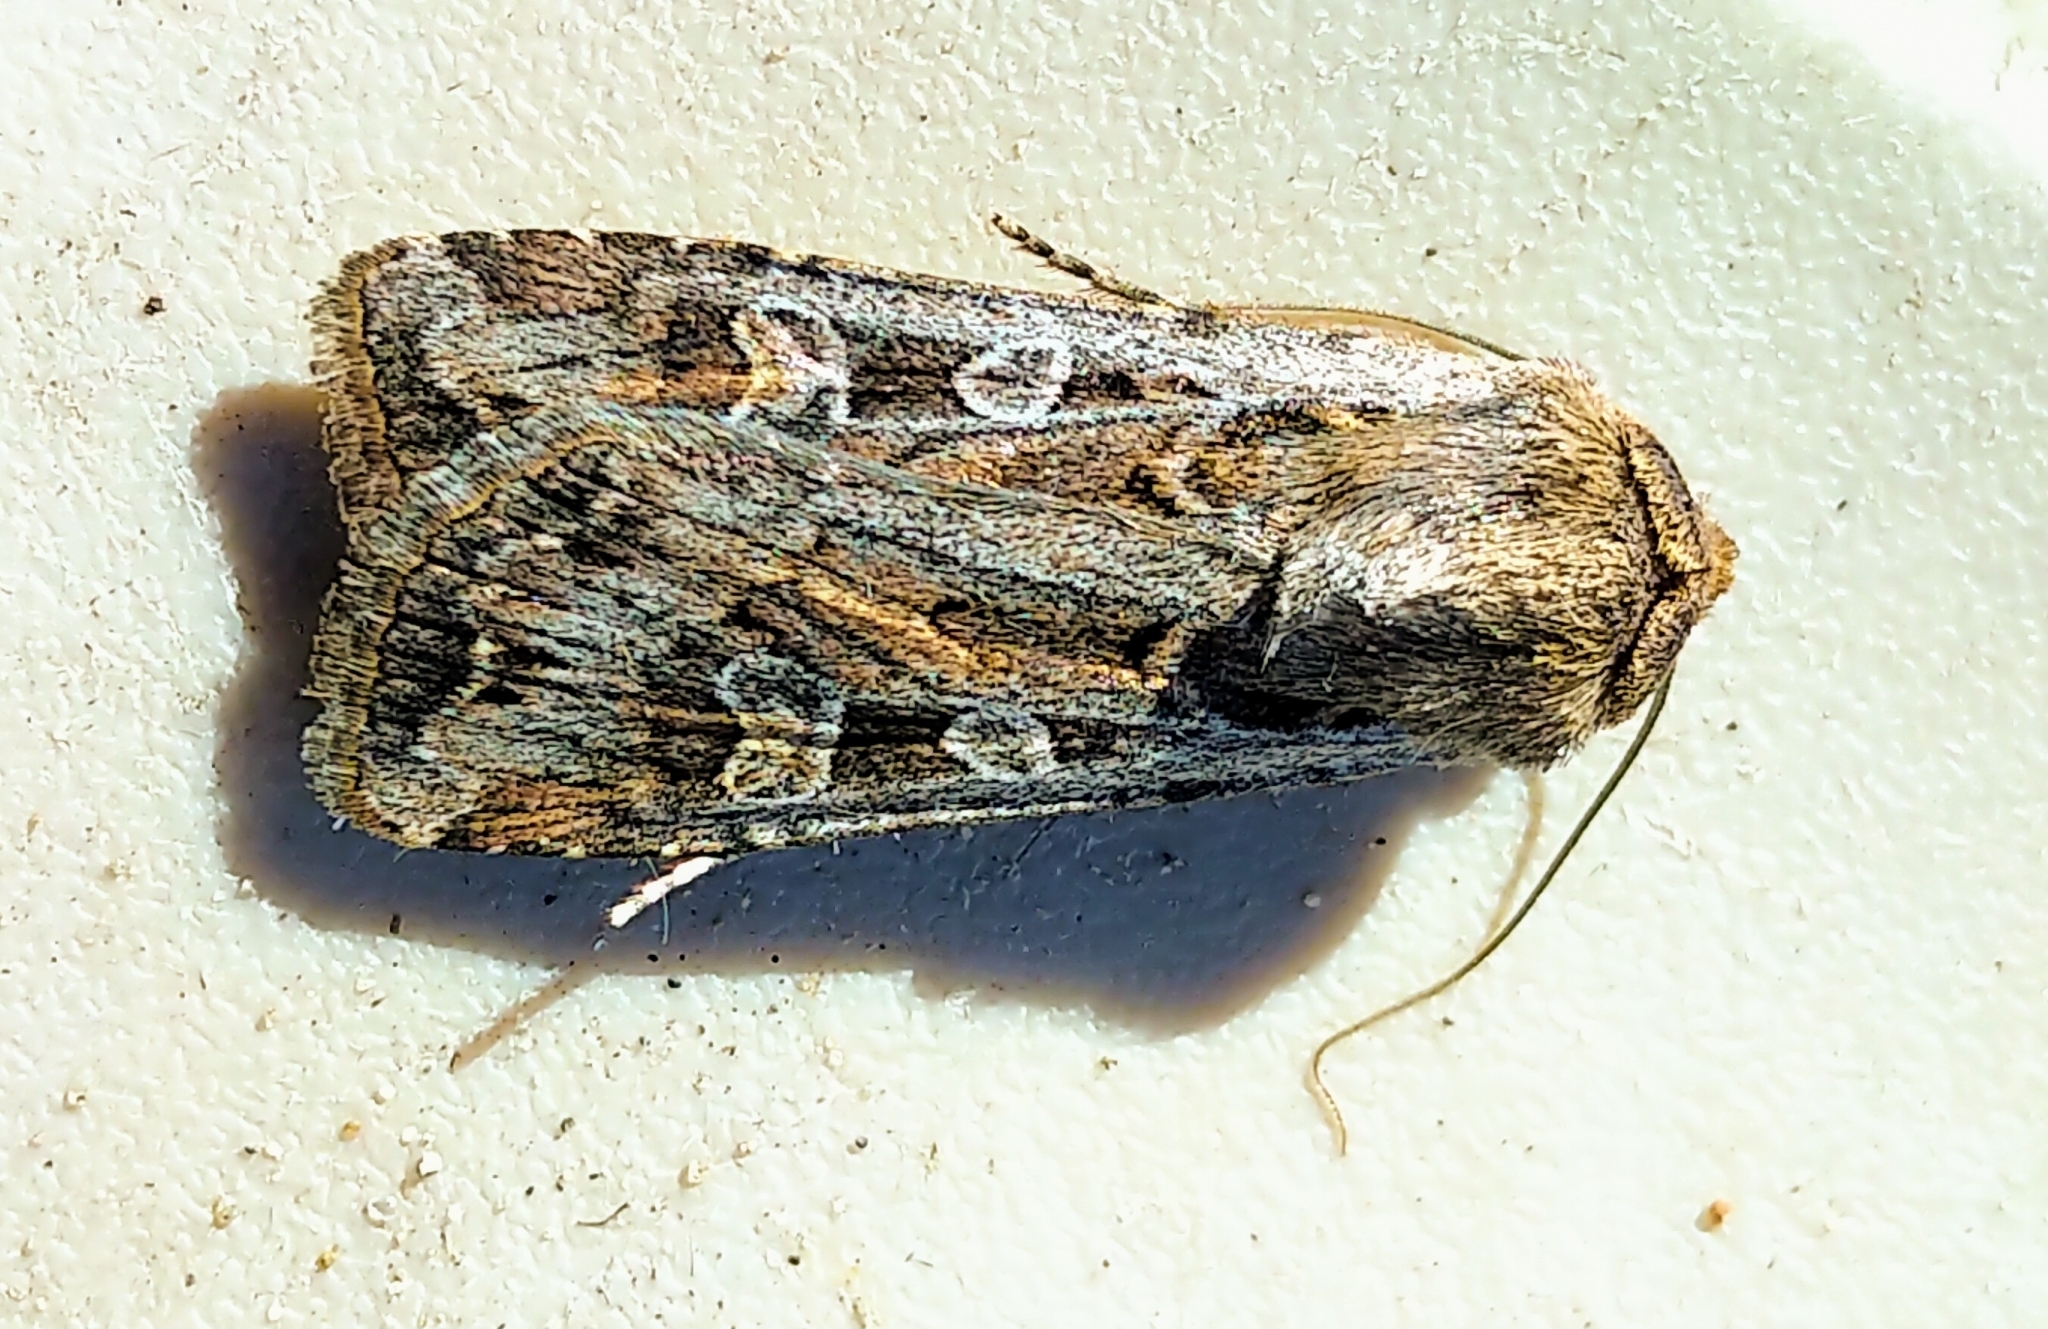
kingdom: Animalia
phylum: Arthropoda
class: Insecta
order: Lepidoptera
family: Noctuidae
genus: Euxoa
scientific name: Euxoa auxiliaris
